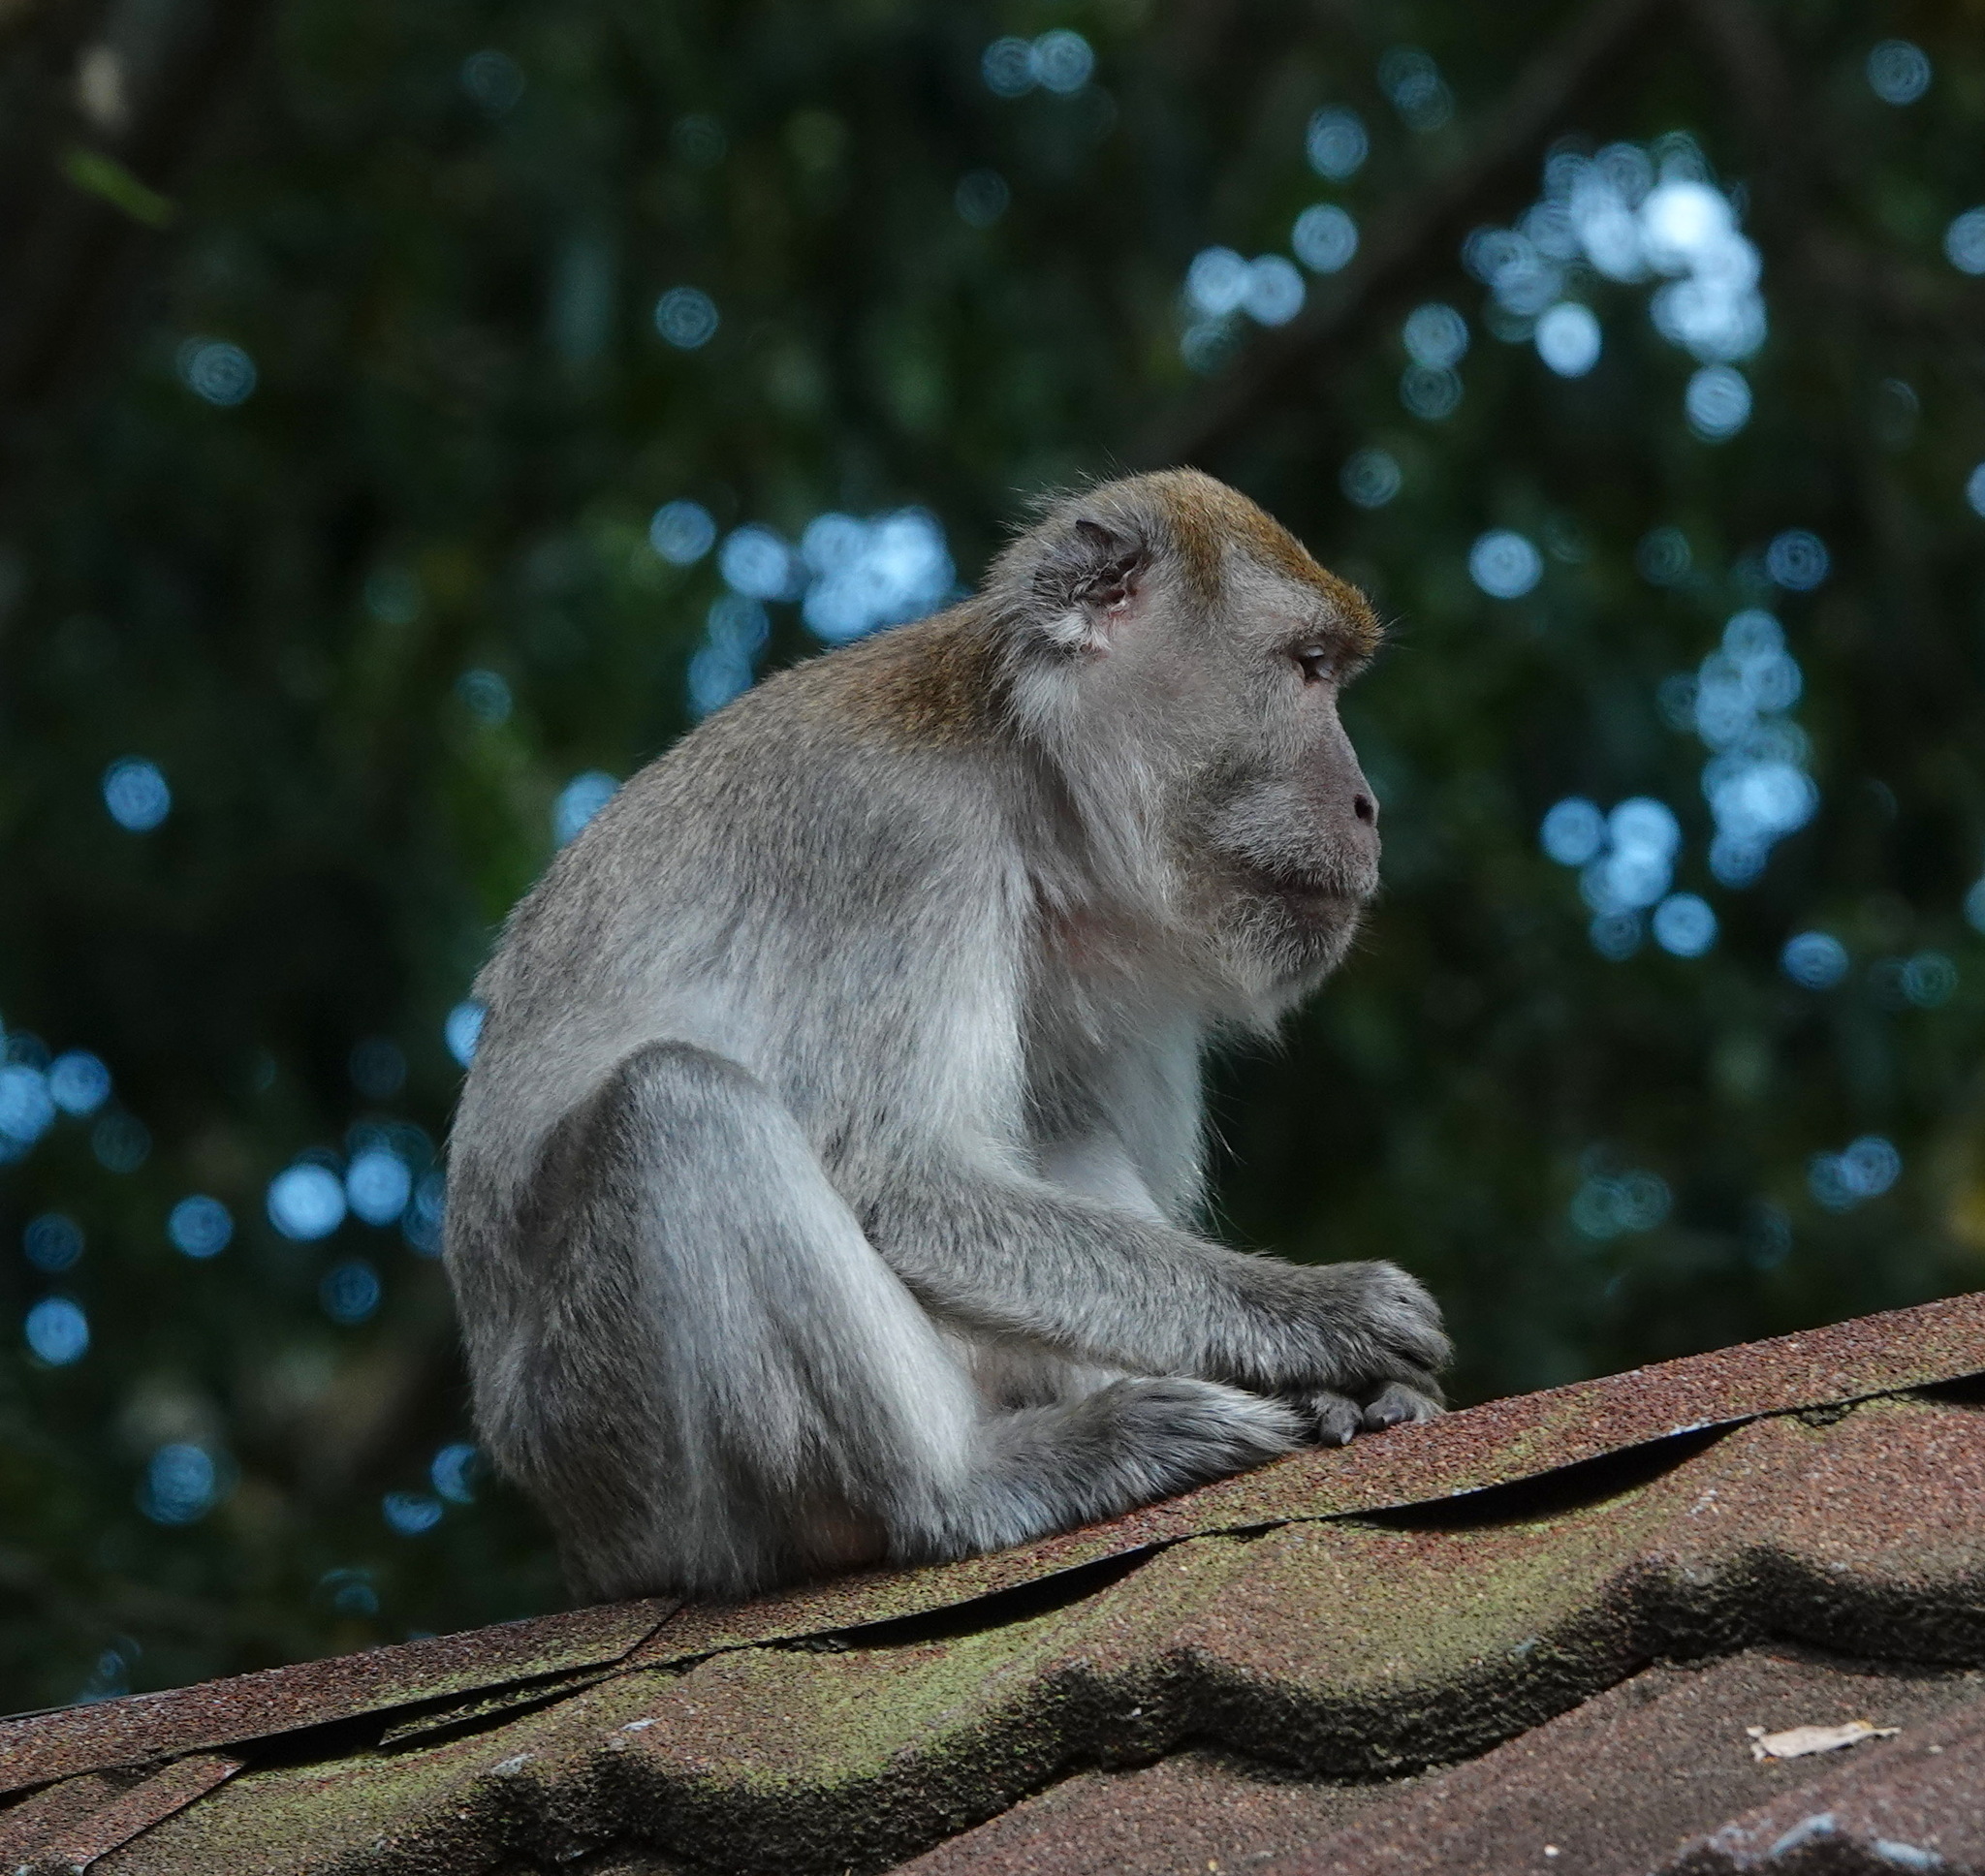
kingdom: Animalia
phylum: Chordata
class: Mammalia
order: Primates
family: Cercopithecidae
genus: Macaca
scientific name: Macaca fascicularis
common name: Crab-eating macaque
